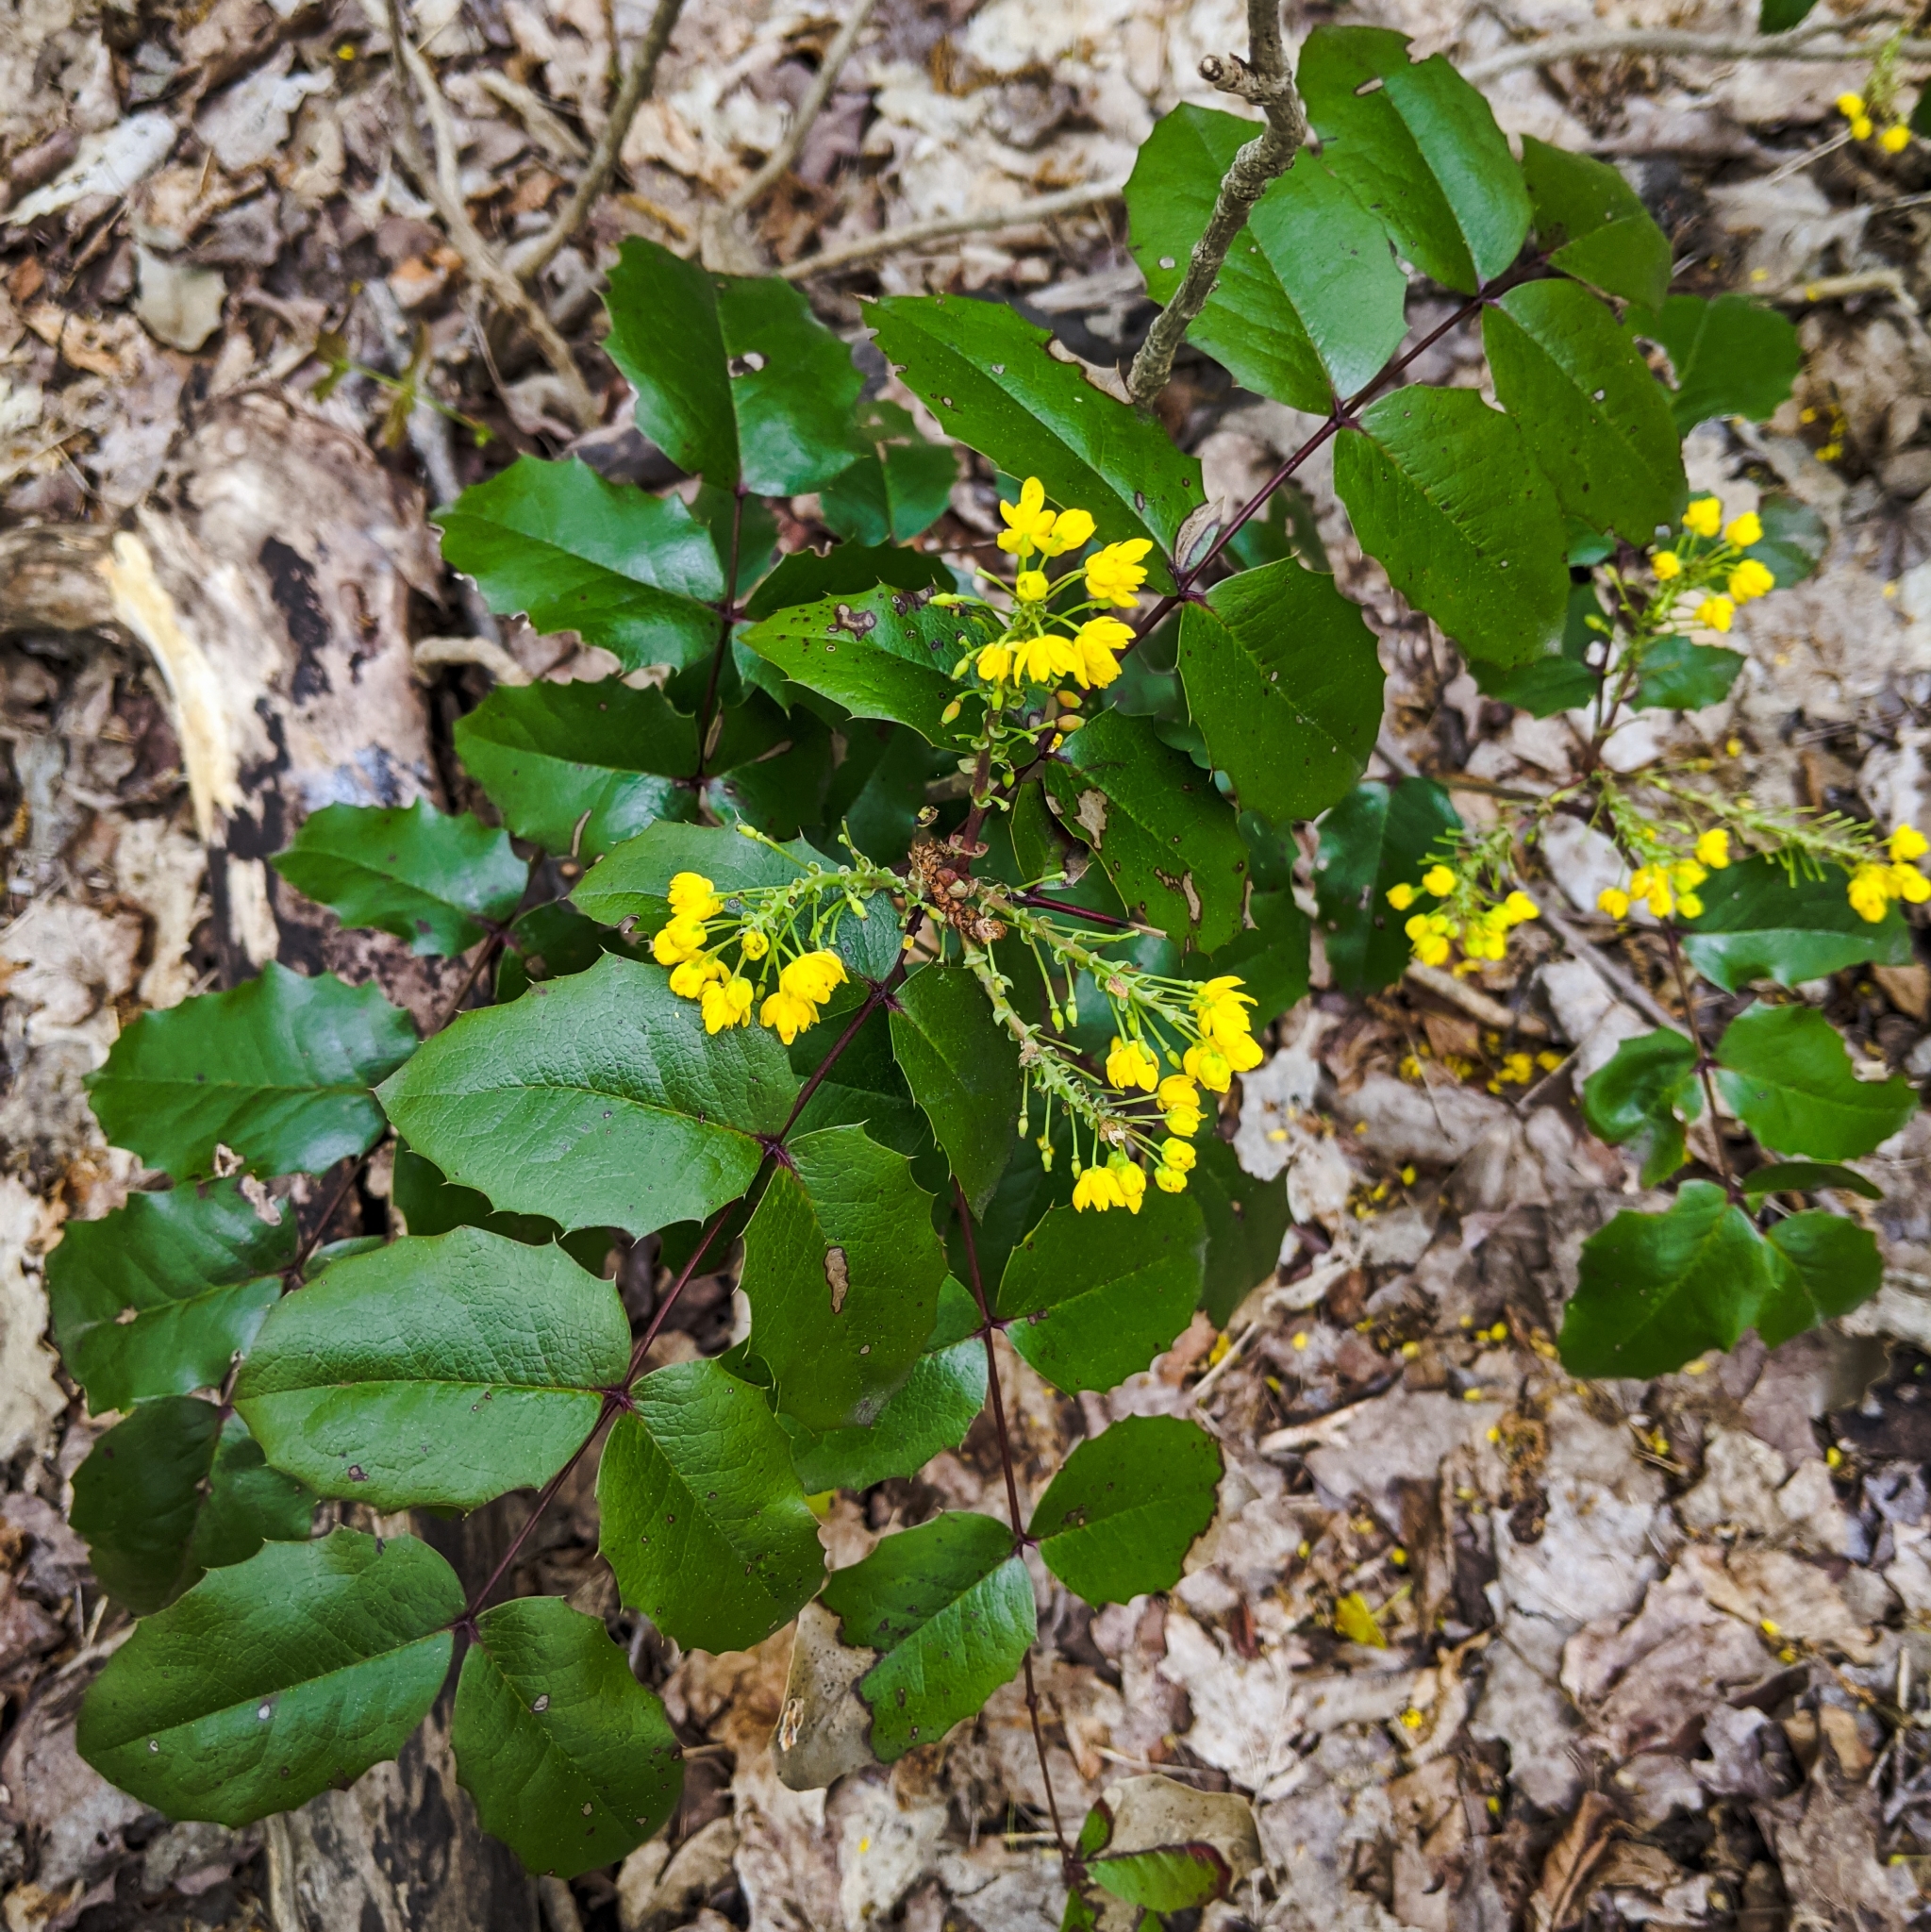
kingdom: Plantae
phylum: Tracheophyta
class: Magnoliopsida
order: Ranunculales
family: Berberidaceae
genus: Mahonia
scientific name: Mahonia aquifolium
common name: Oregon-grape
